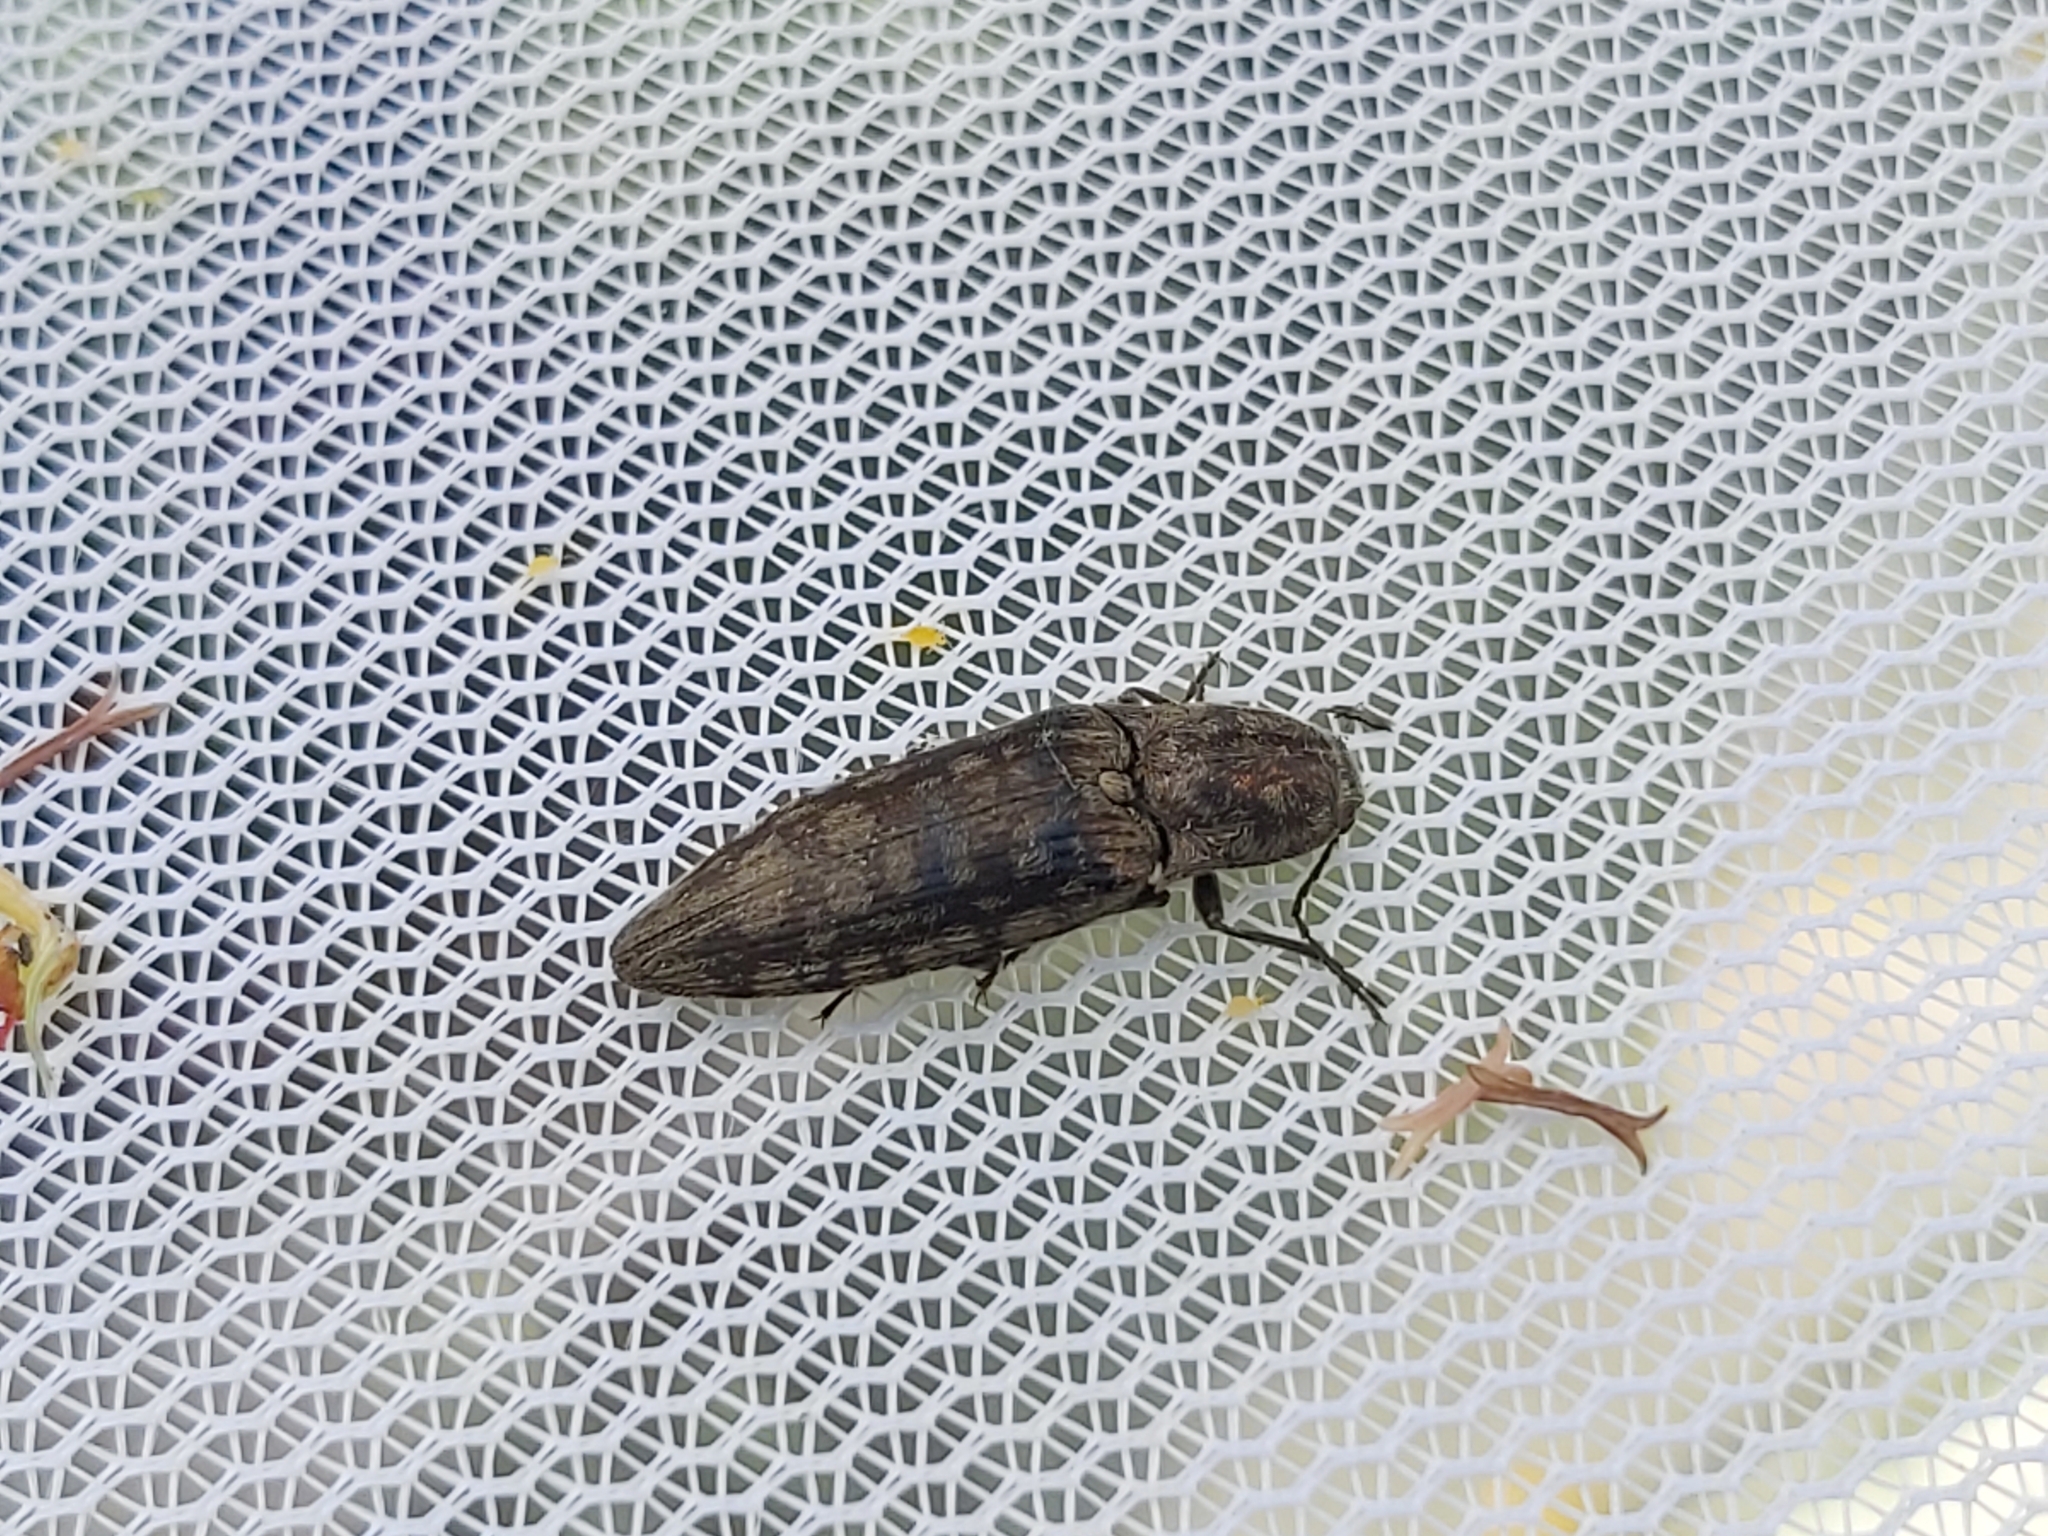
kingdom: Animalia
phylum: Arthropoda
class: Insecta
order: Coleoptera
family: Elateridae
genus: Actenicerus
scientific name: Actenicerus sjaelandicus
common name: Marsh click beetle
